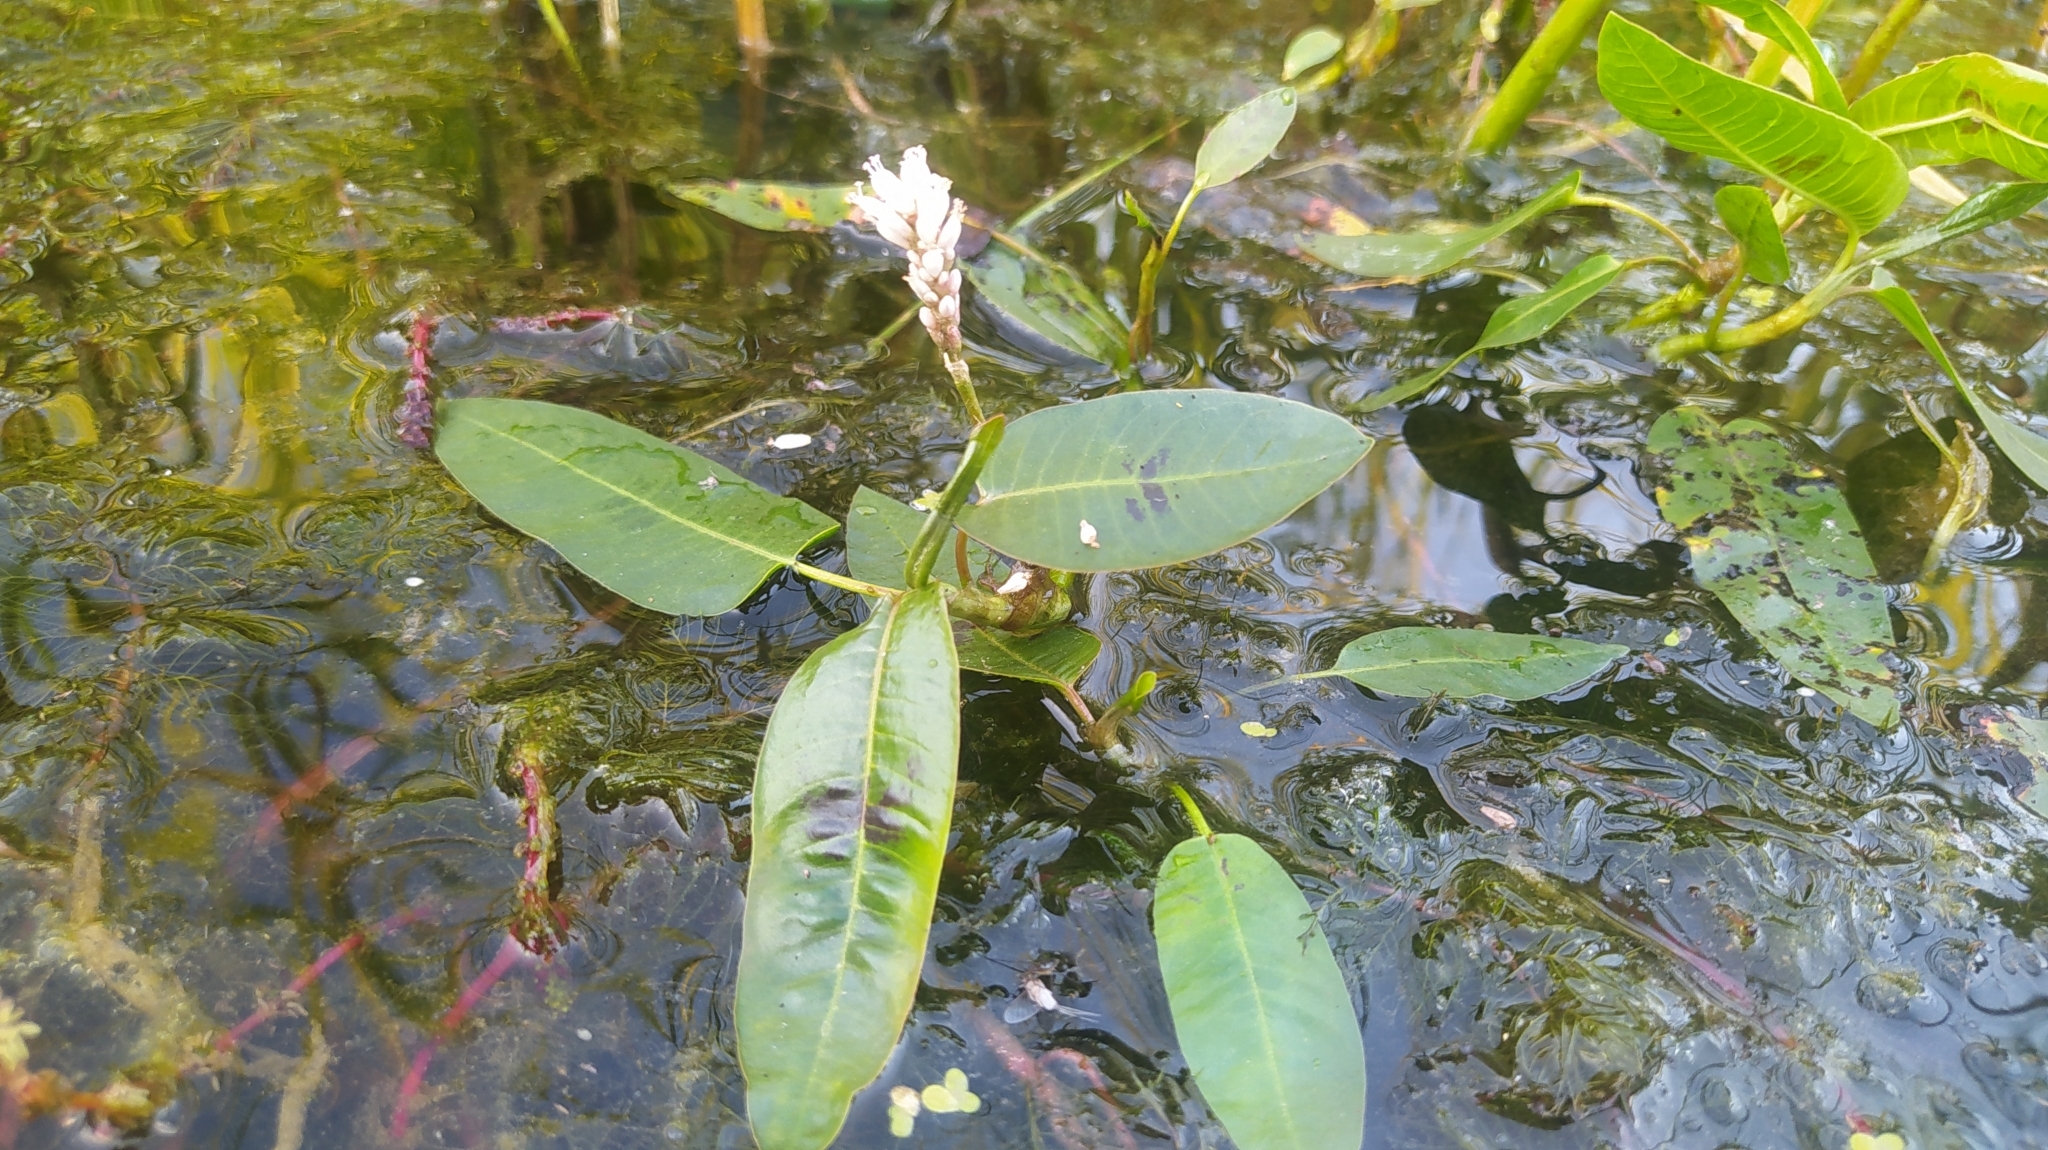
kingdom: Plantae
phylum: Tracheophyta
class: Magnoliopsida
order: Caryophyllales
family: Polygonaceae
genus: Persicaria
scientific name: Persicaria amphibia
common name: Amphibious bistort
